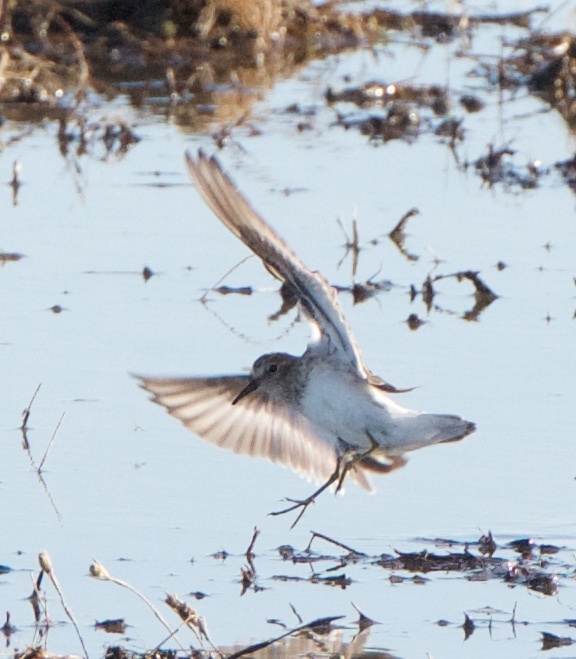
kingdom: Animalia
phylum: Chordata
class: Aves
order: Charadriiformes
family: Scolopacidae
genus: Calidris
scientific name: Calidris minutilla
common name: Least sandpiper
